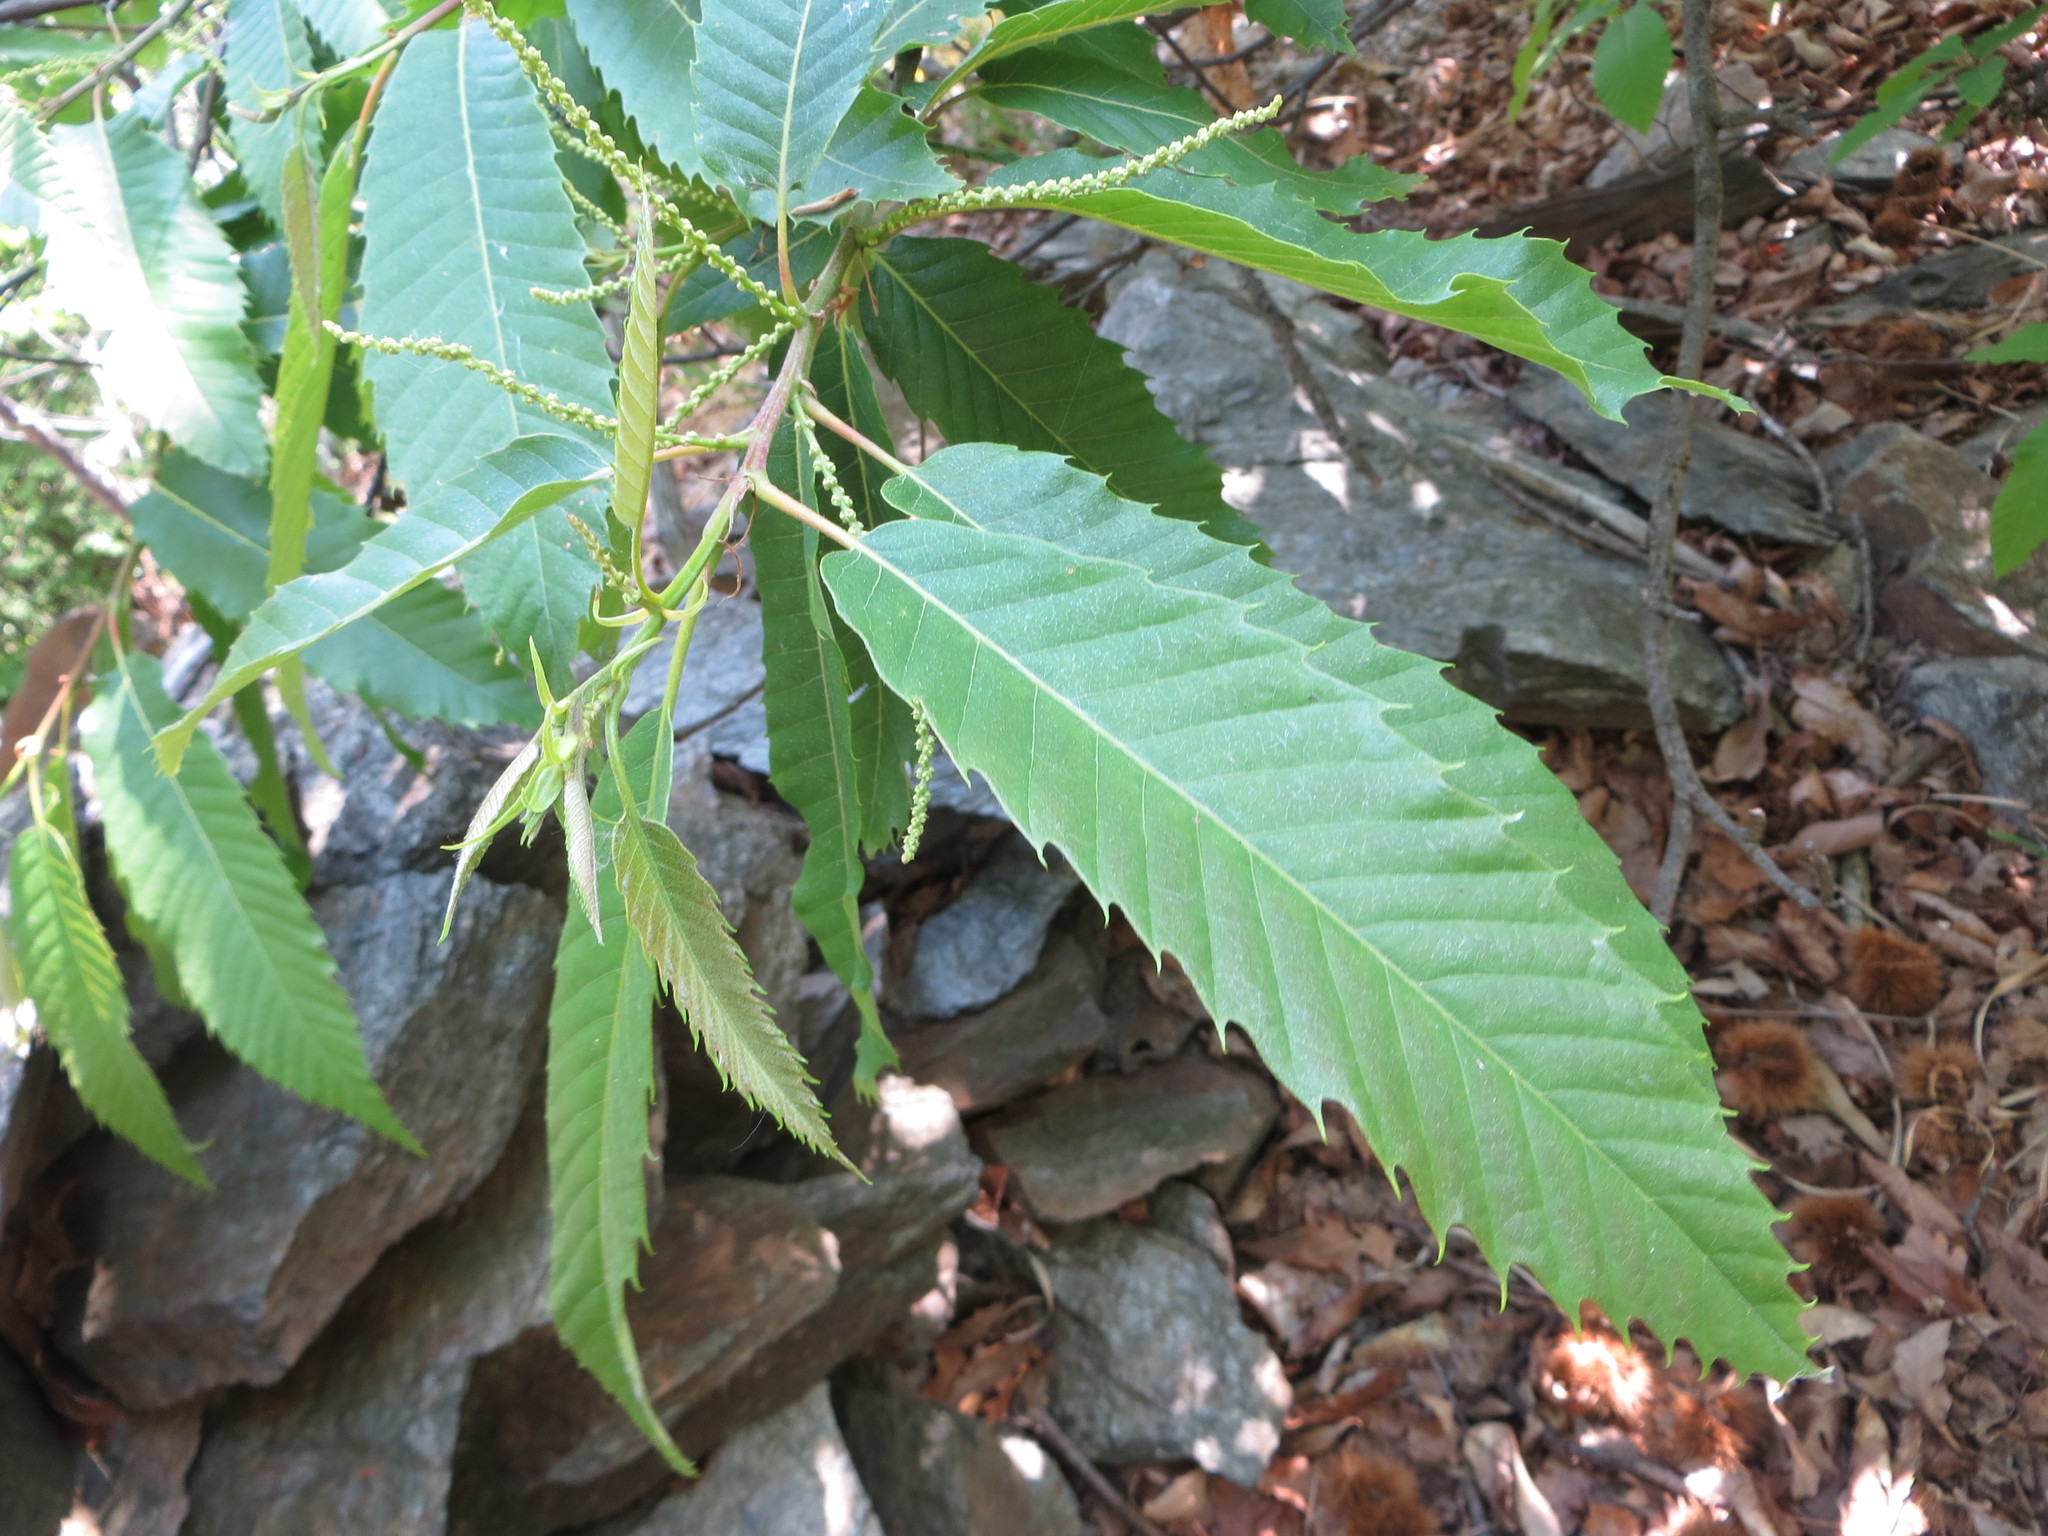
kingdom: Plantae
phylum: Tracheophyta
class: Magnoliopsida
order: Fagales
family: Fagaceae
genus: Castanea
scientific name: Castanea sativa
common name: Sweet chestnut
